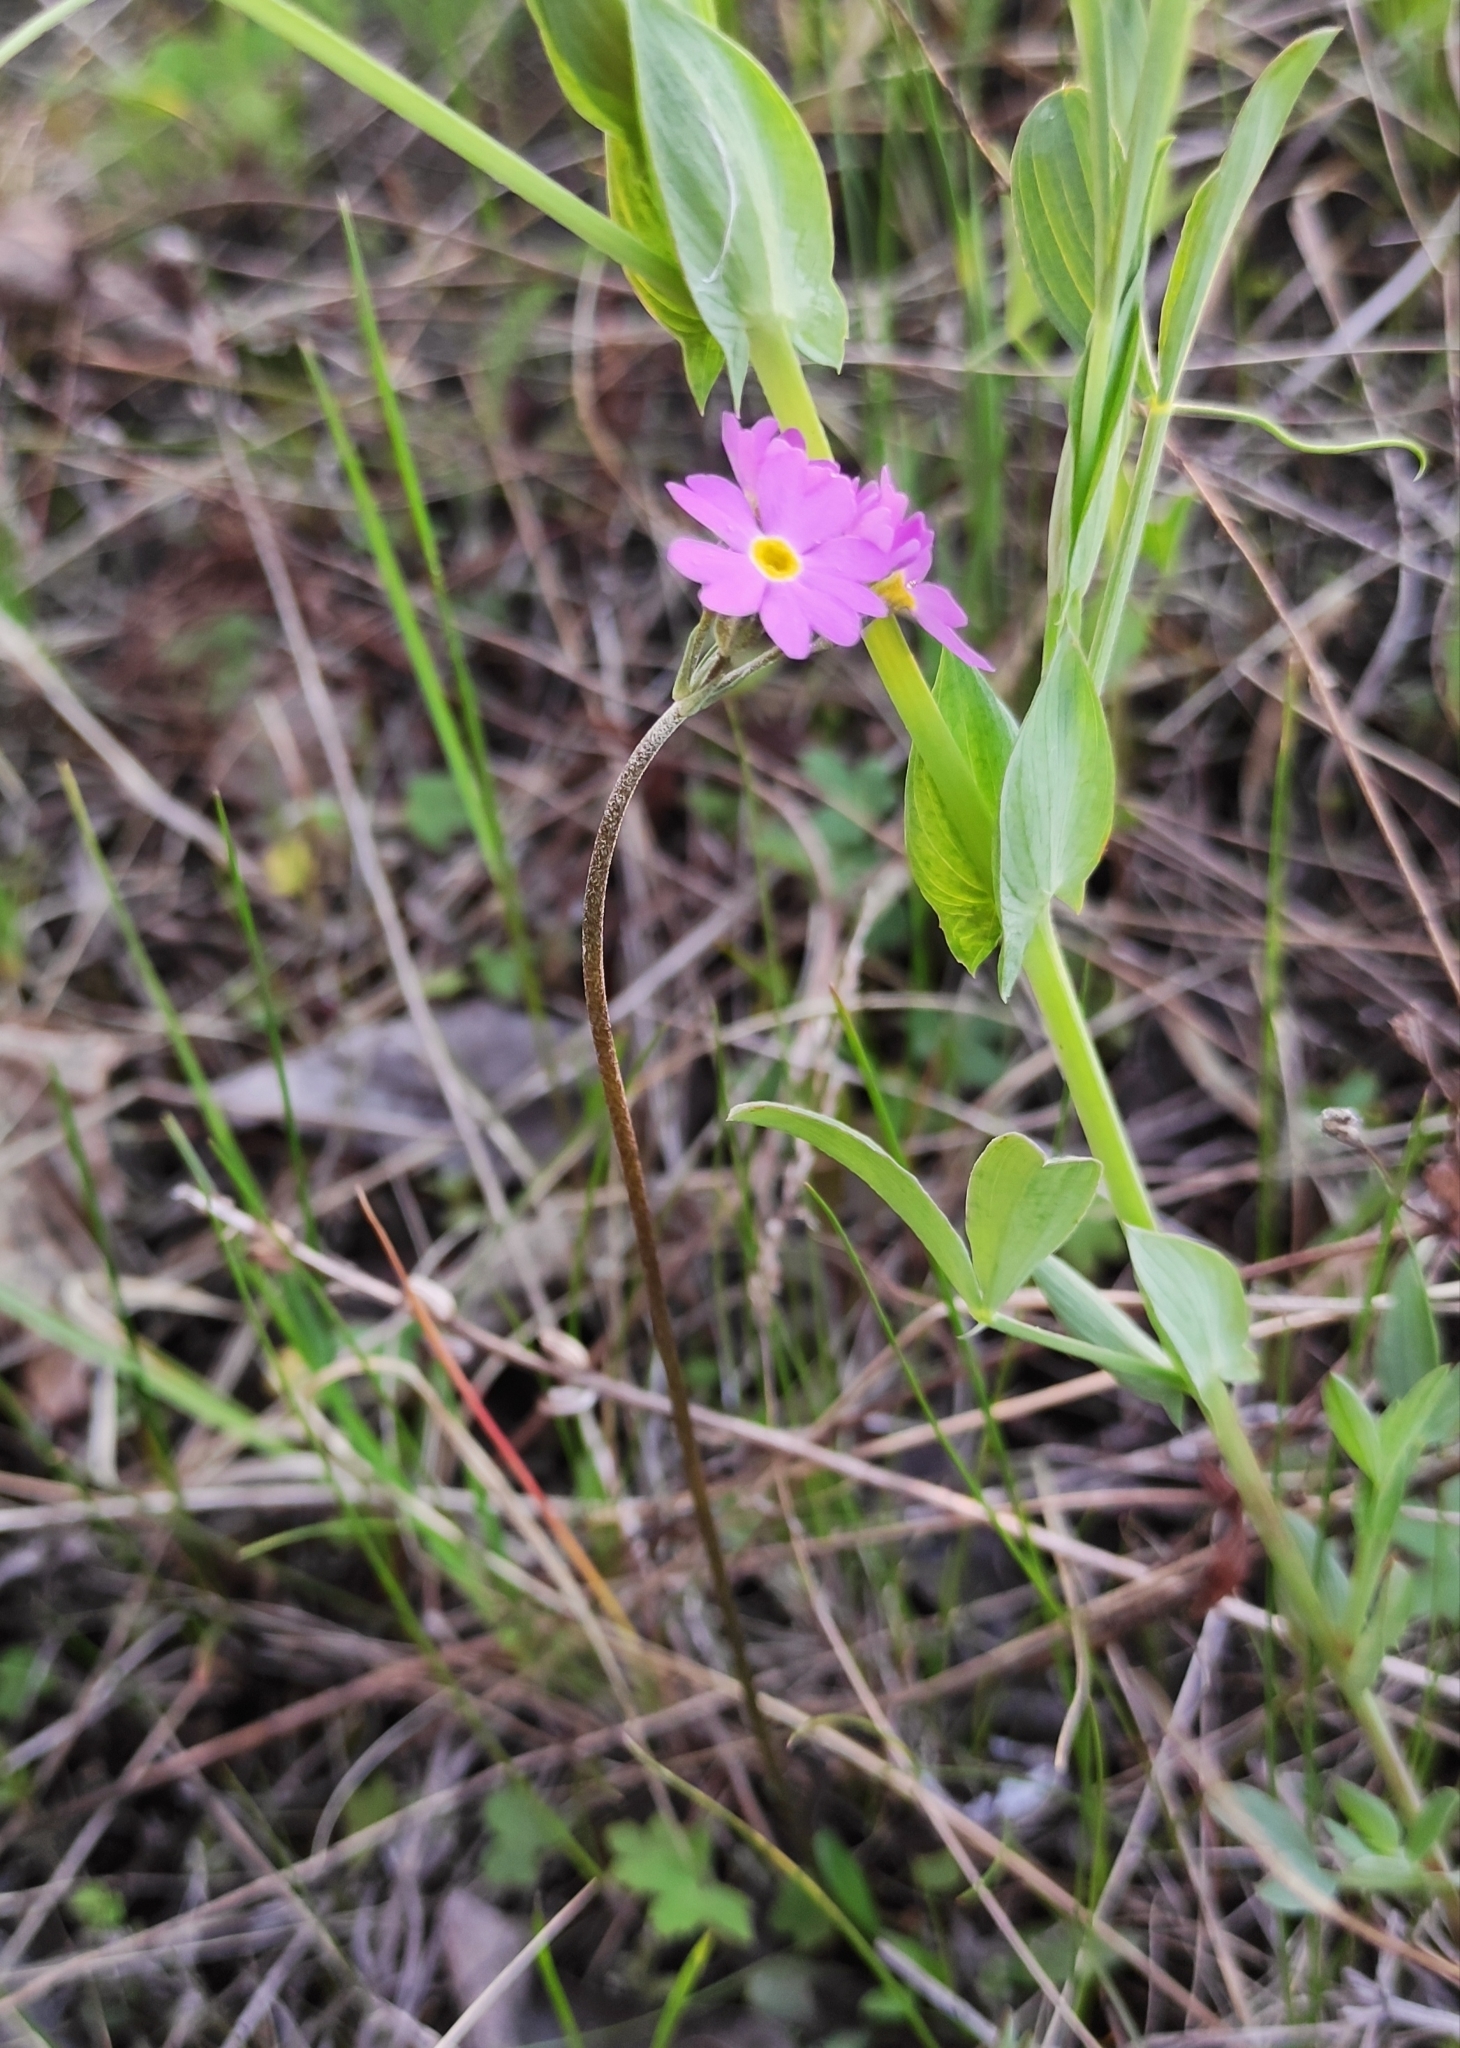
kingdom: Plantae
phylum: Tracheophyta
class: Magnoliopsida
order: Ericales
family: Primulaceae
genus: Primula
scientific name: Primula farinosa
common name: Bird's-eye primrose
